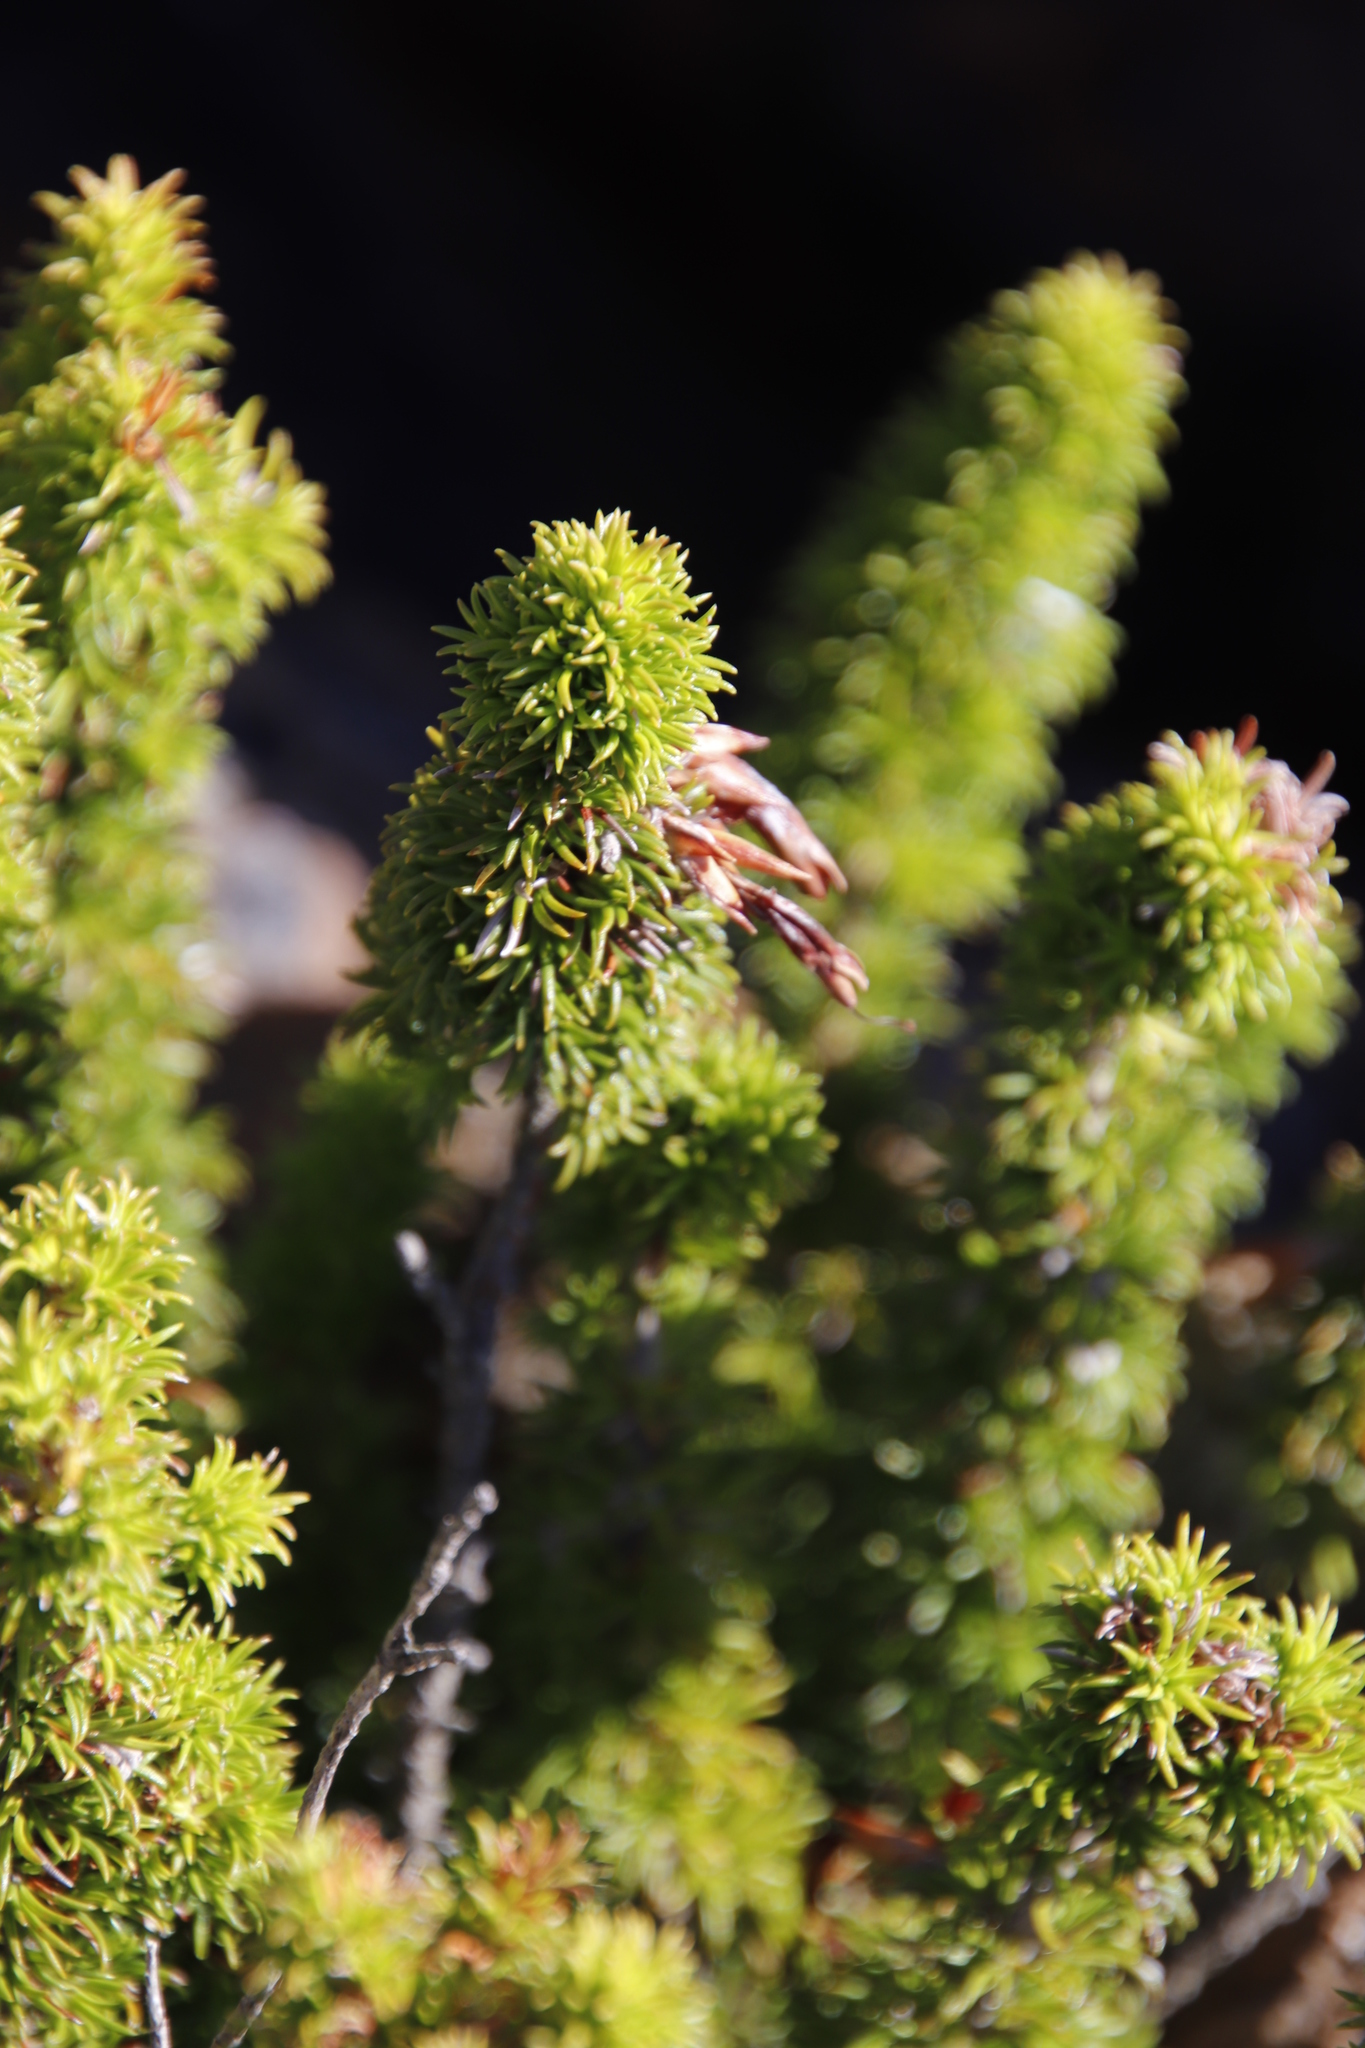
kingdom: Plantae
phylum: Tracheophyta
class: Magnoliopsida
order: Ericales
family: Ericaceae
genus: Erica
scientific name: Erica coccinea
